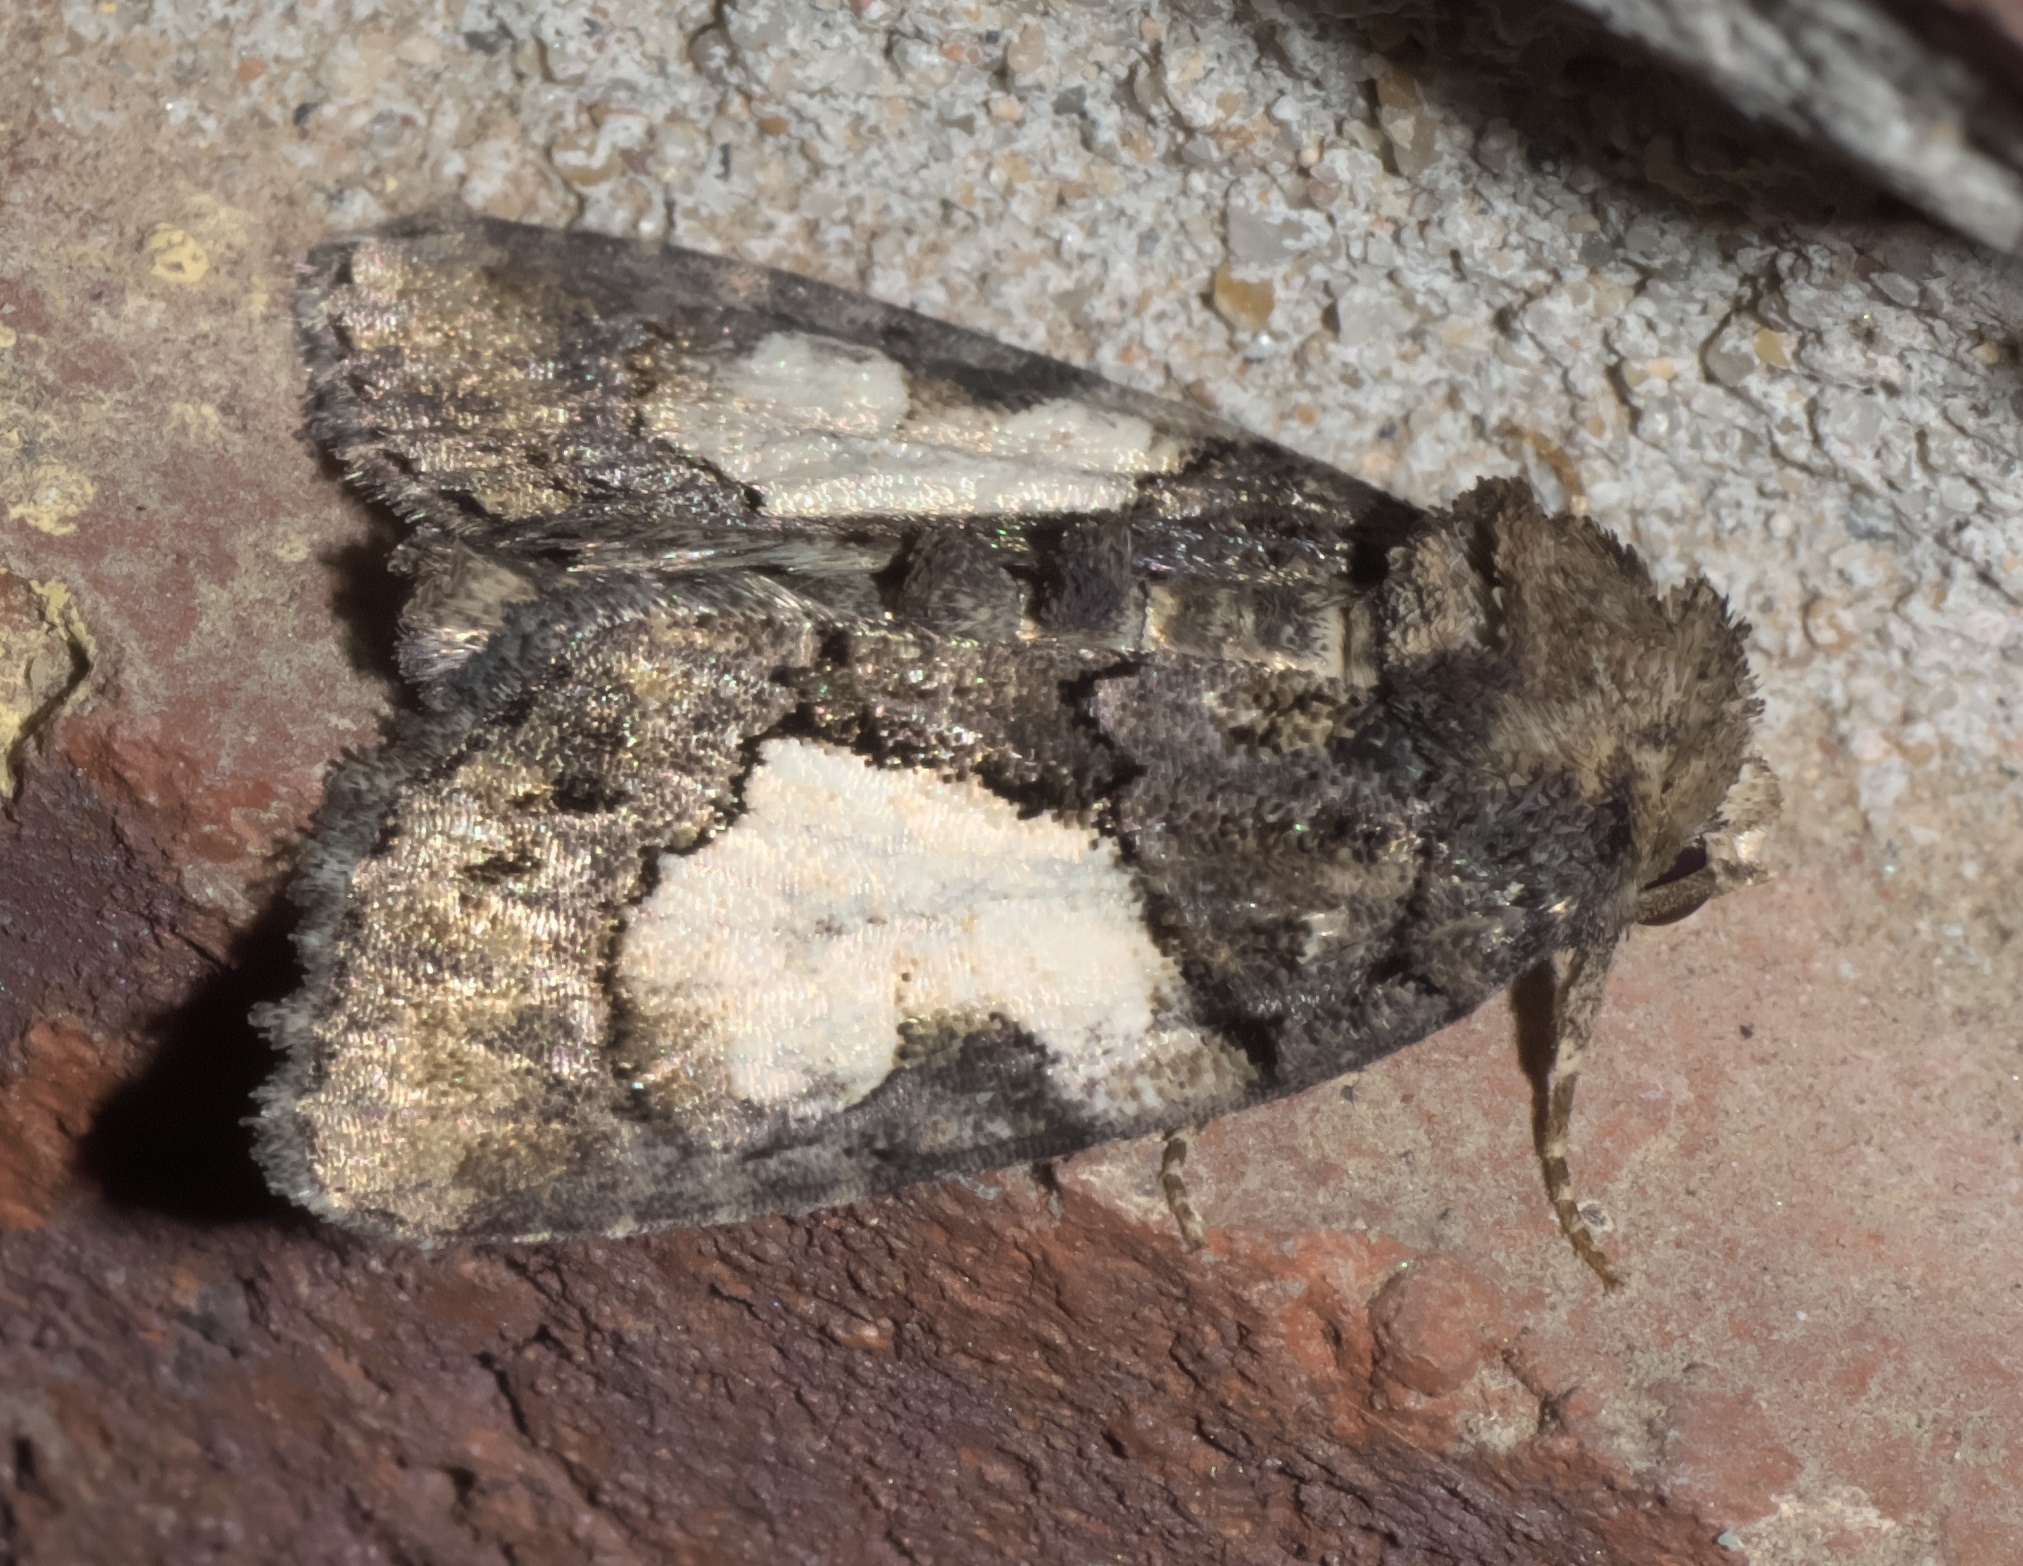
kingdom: Animalia
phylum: Arthropoda
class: Insecta
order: Lepidoptera
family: Noctuidae
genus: Chytonix
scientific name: Chytonix palliatricula
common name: Cloaked marvel
